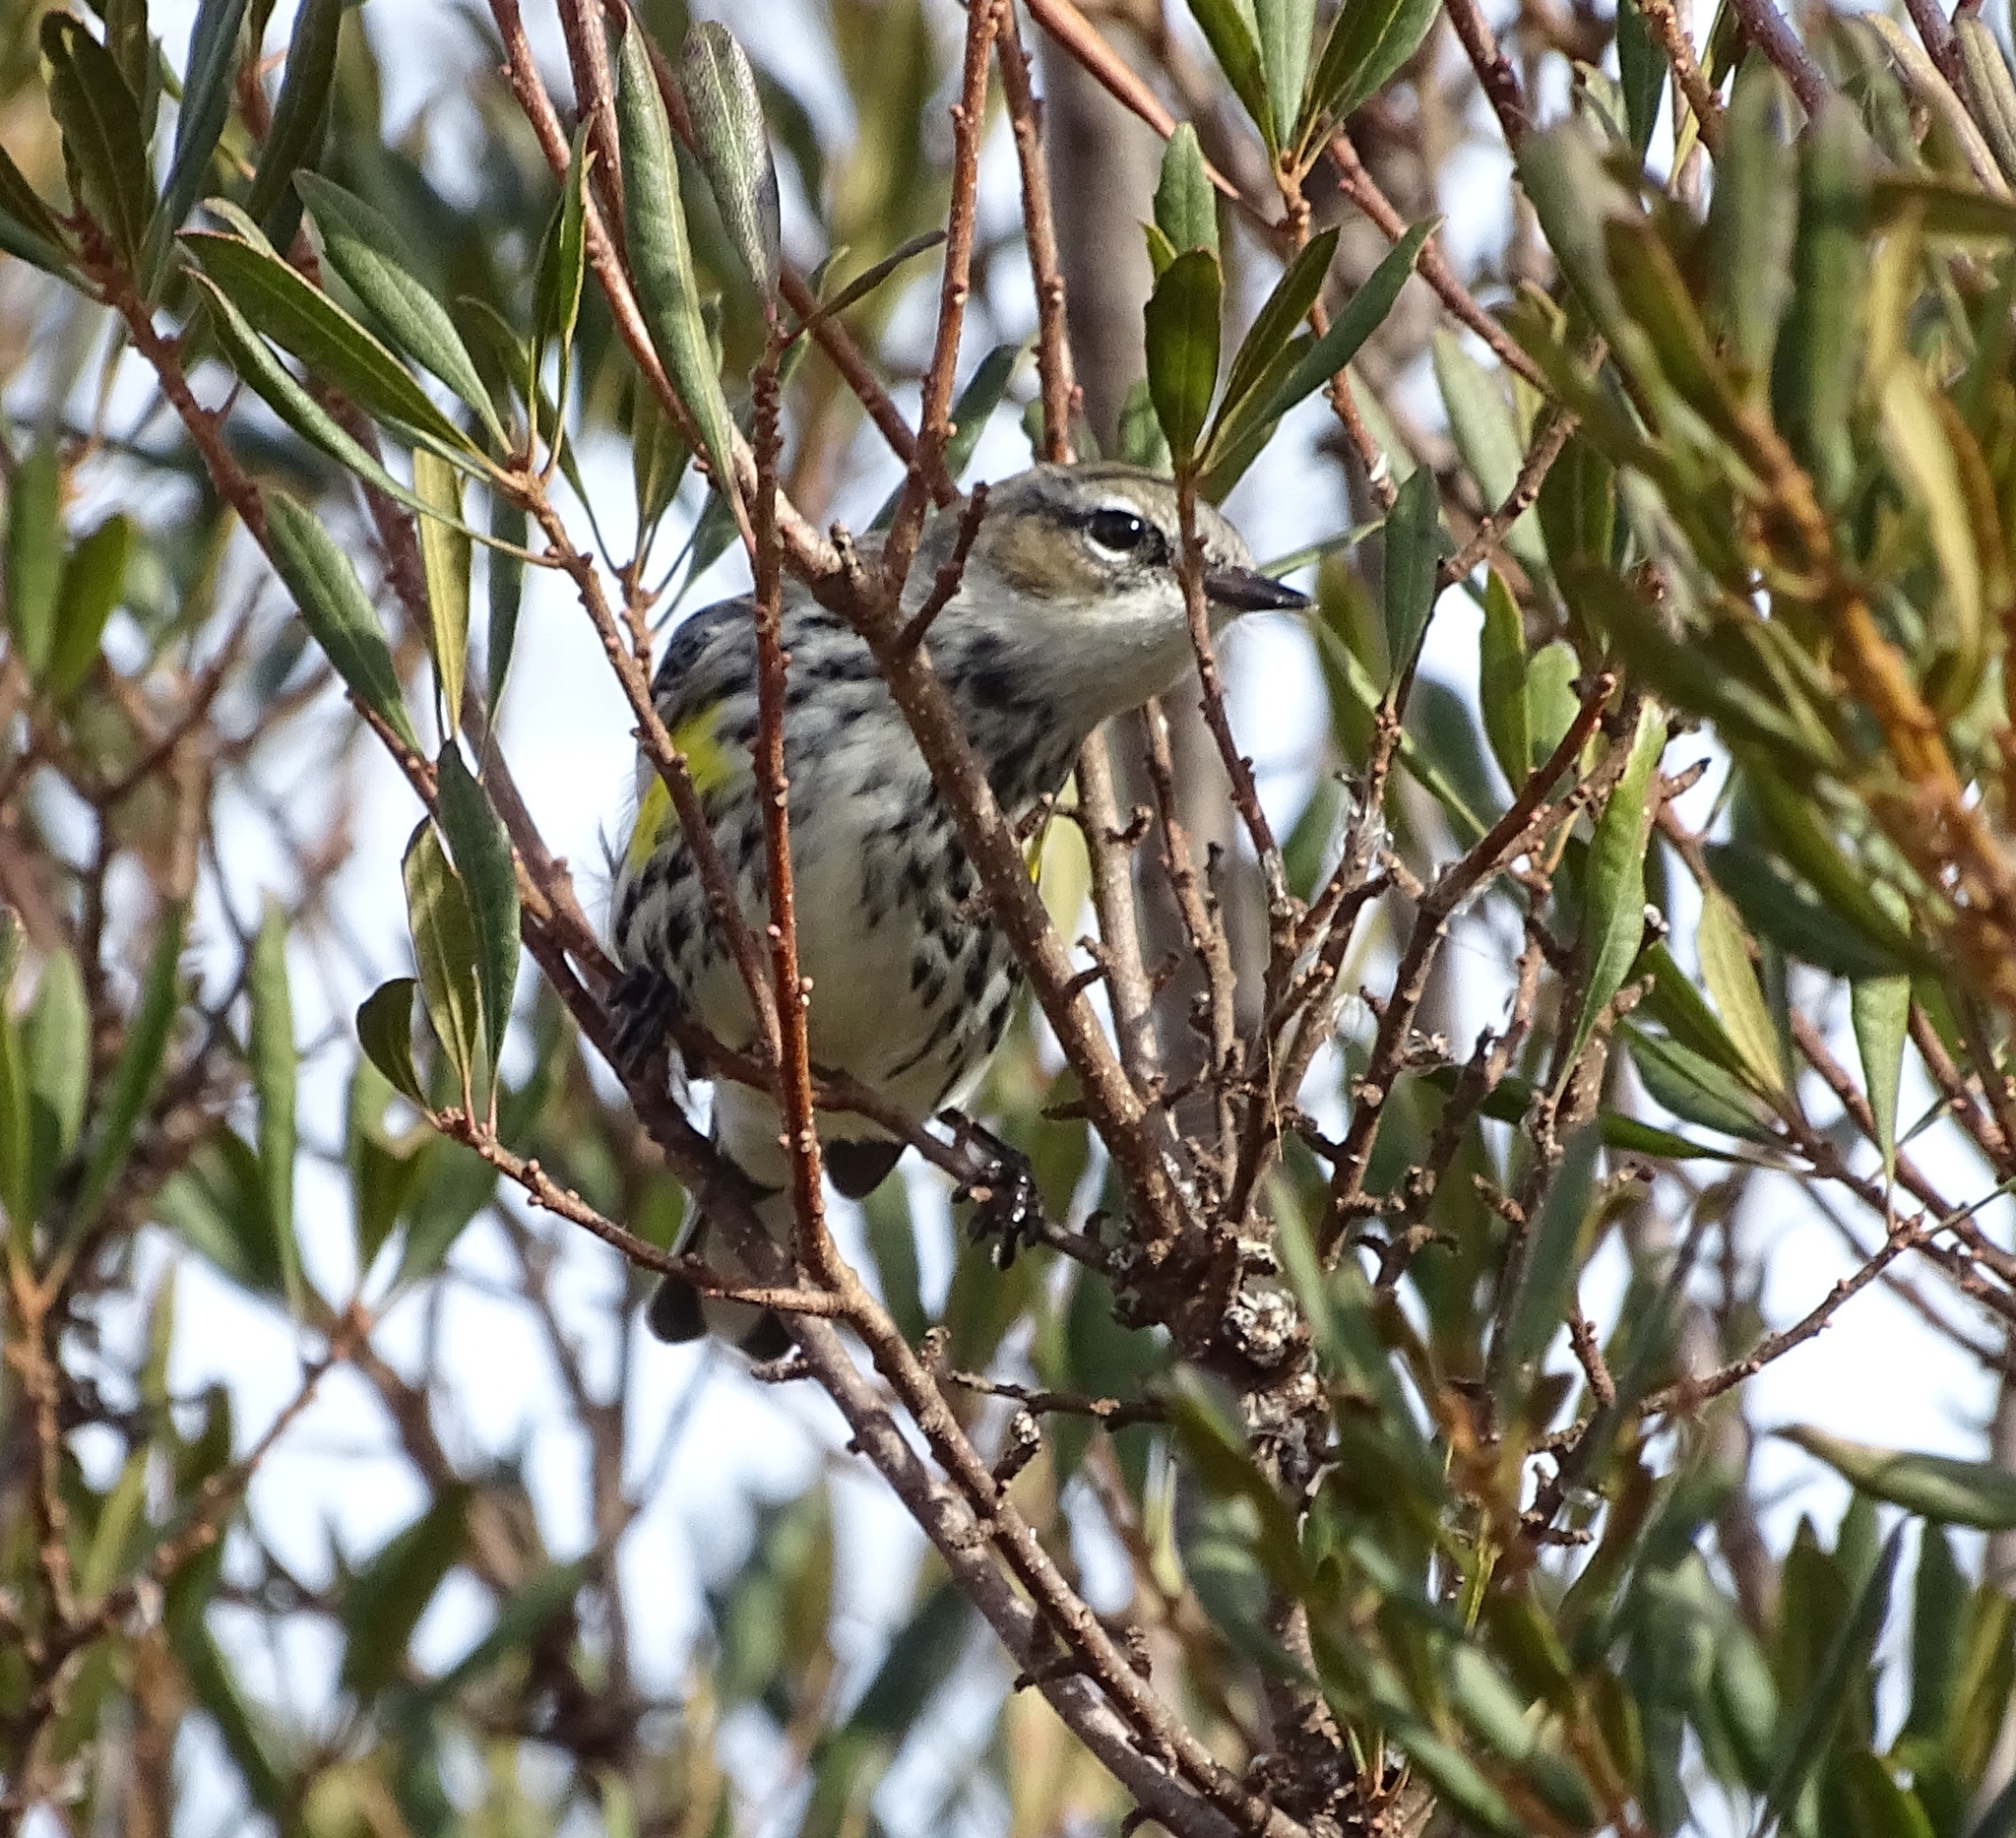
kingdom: Animalia
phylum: Chordata
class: Aves
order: Passeriformes
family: Parulidae
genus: Setophaga
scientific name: Setophaga coronata
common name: Myrtle warbler
